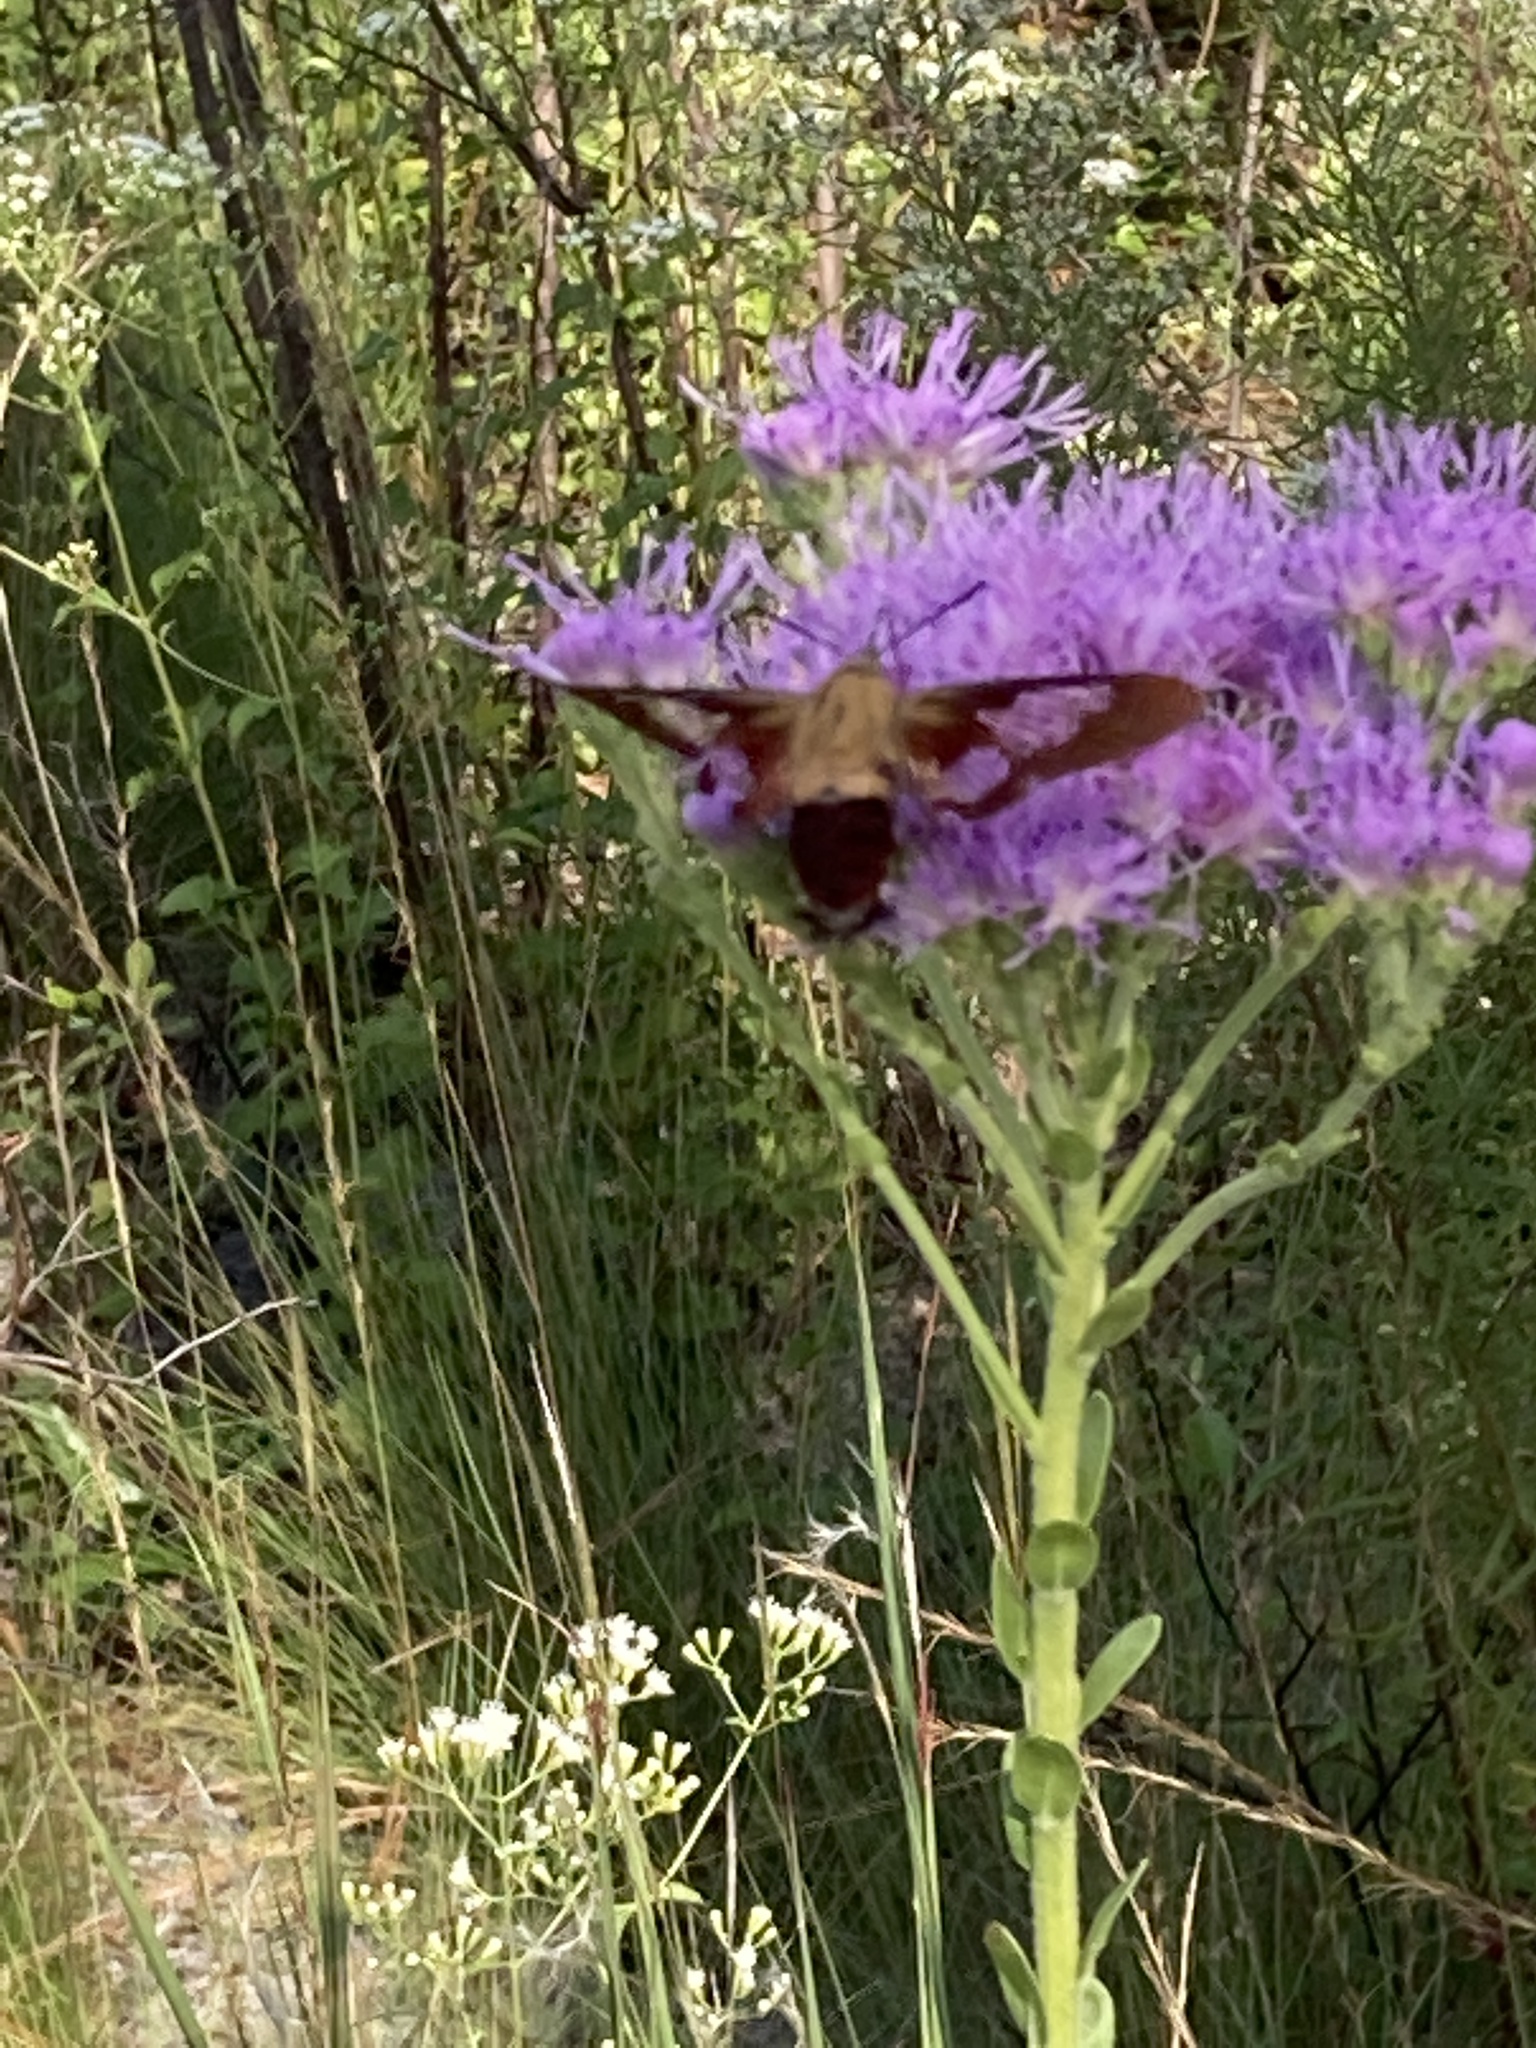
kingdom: Animalia
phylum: Arthropoda
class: Insecta
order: Lepidoptera
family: Sphingidae
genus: Hemaris
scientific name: Hemaris thysbe
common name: Common clear-wing
